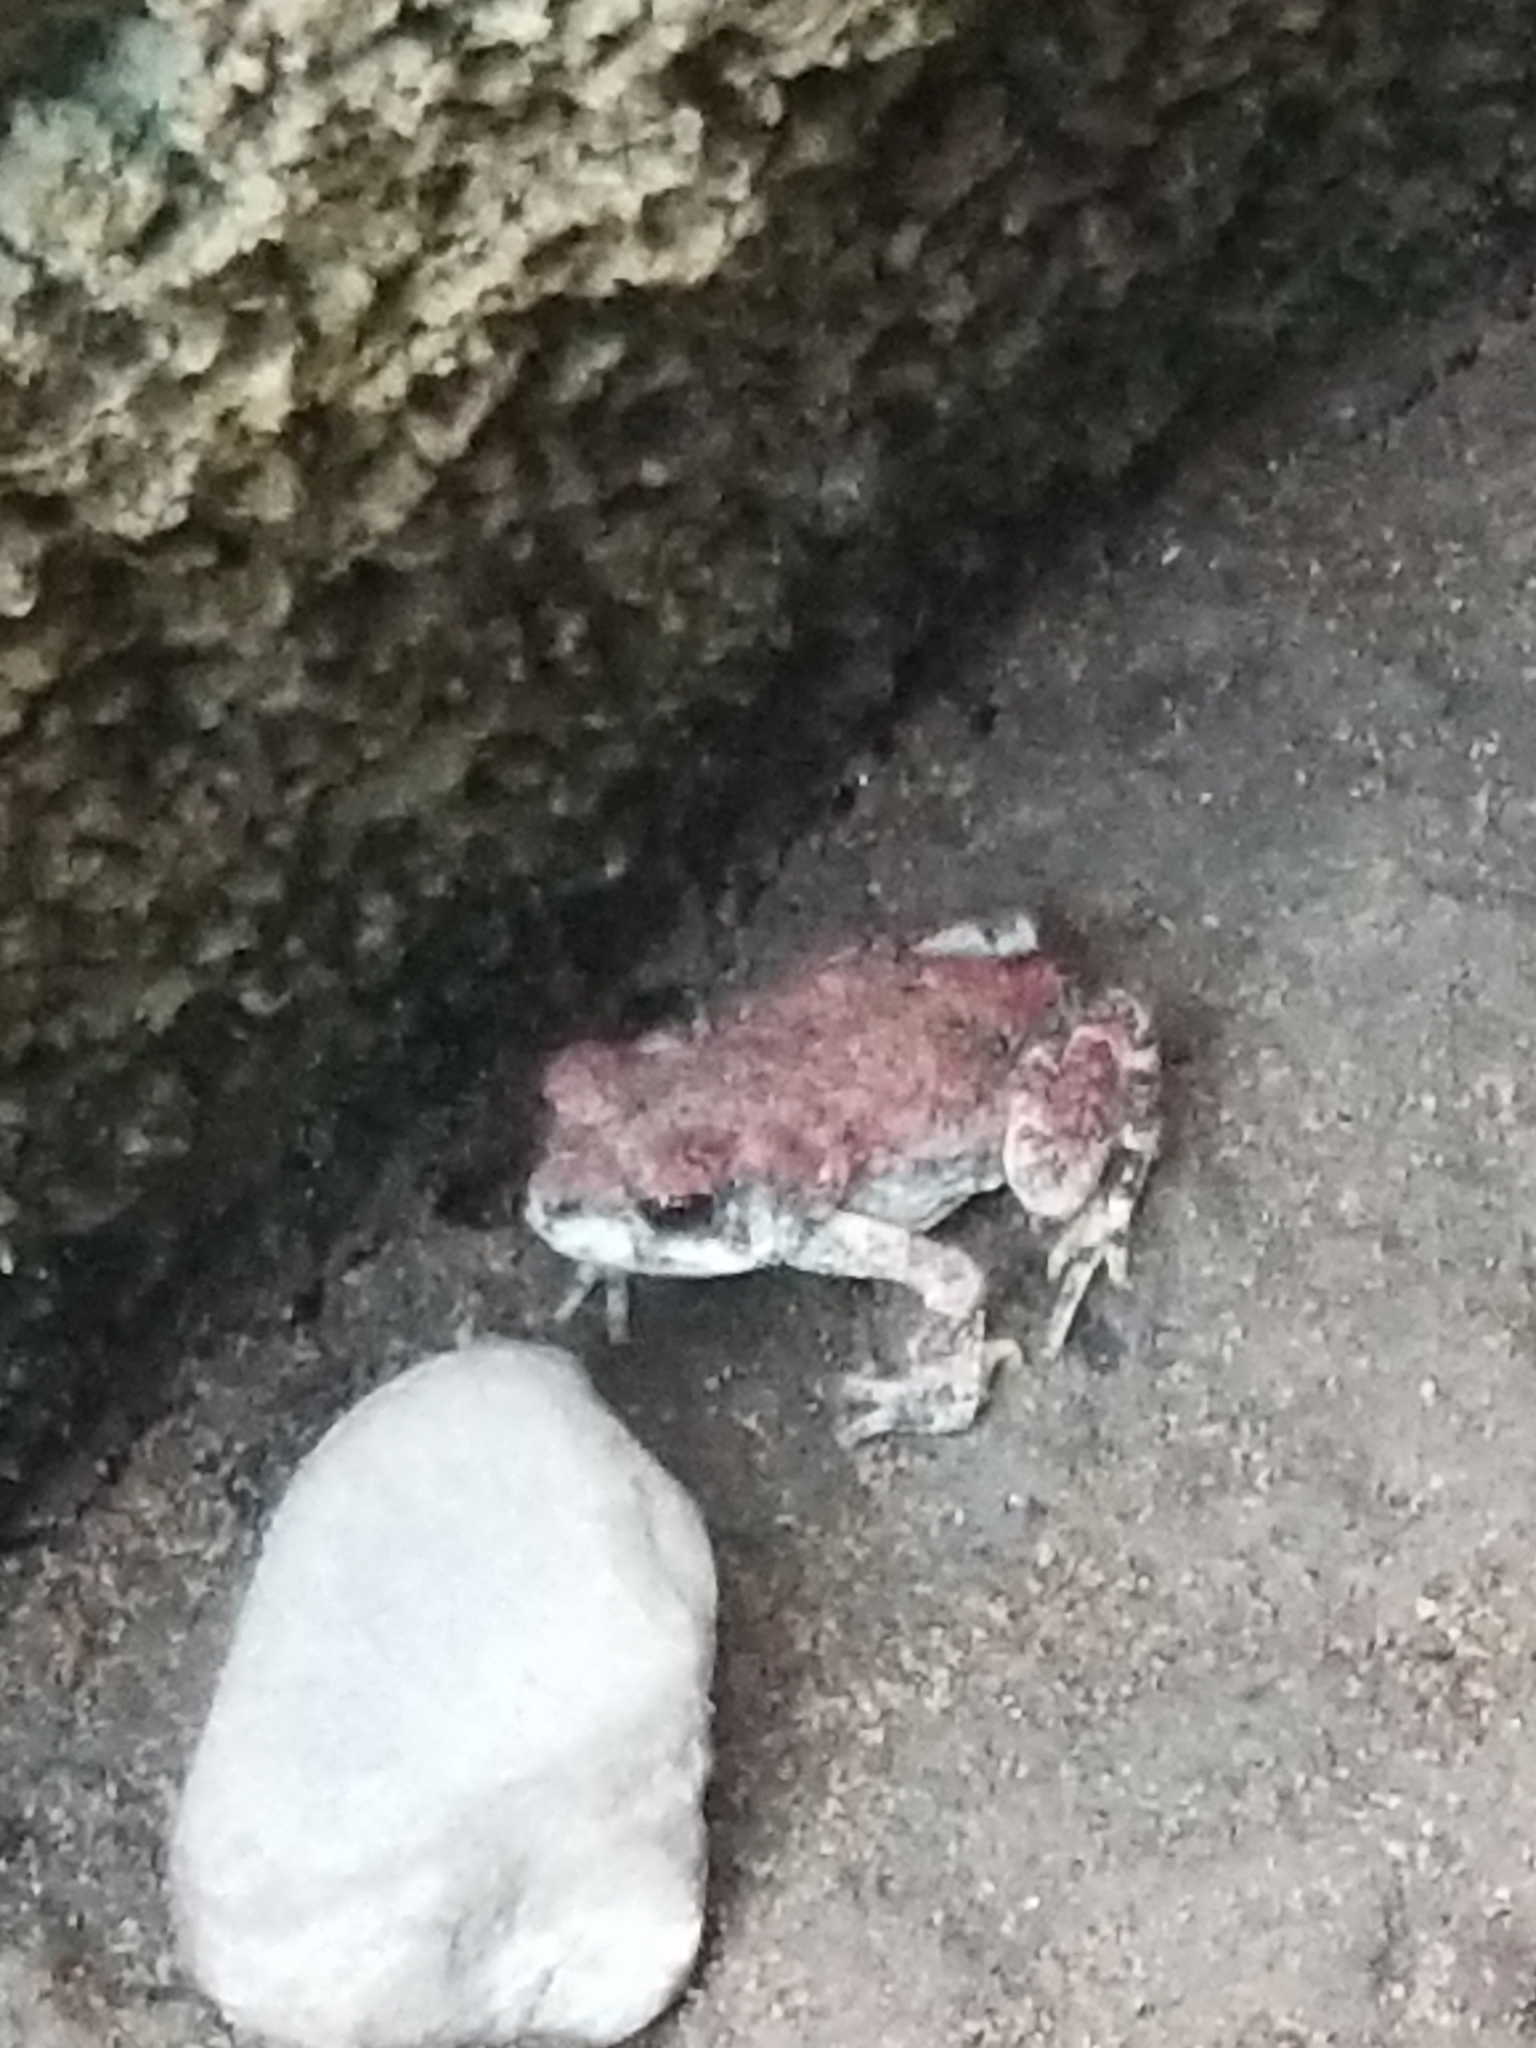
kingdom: Animalia
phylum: Chordata
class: Amphibia
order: Anura
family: Bufonidae
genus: Anaxyrus
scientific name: Anaxyrus punctatus
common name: Red-spotted toad
